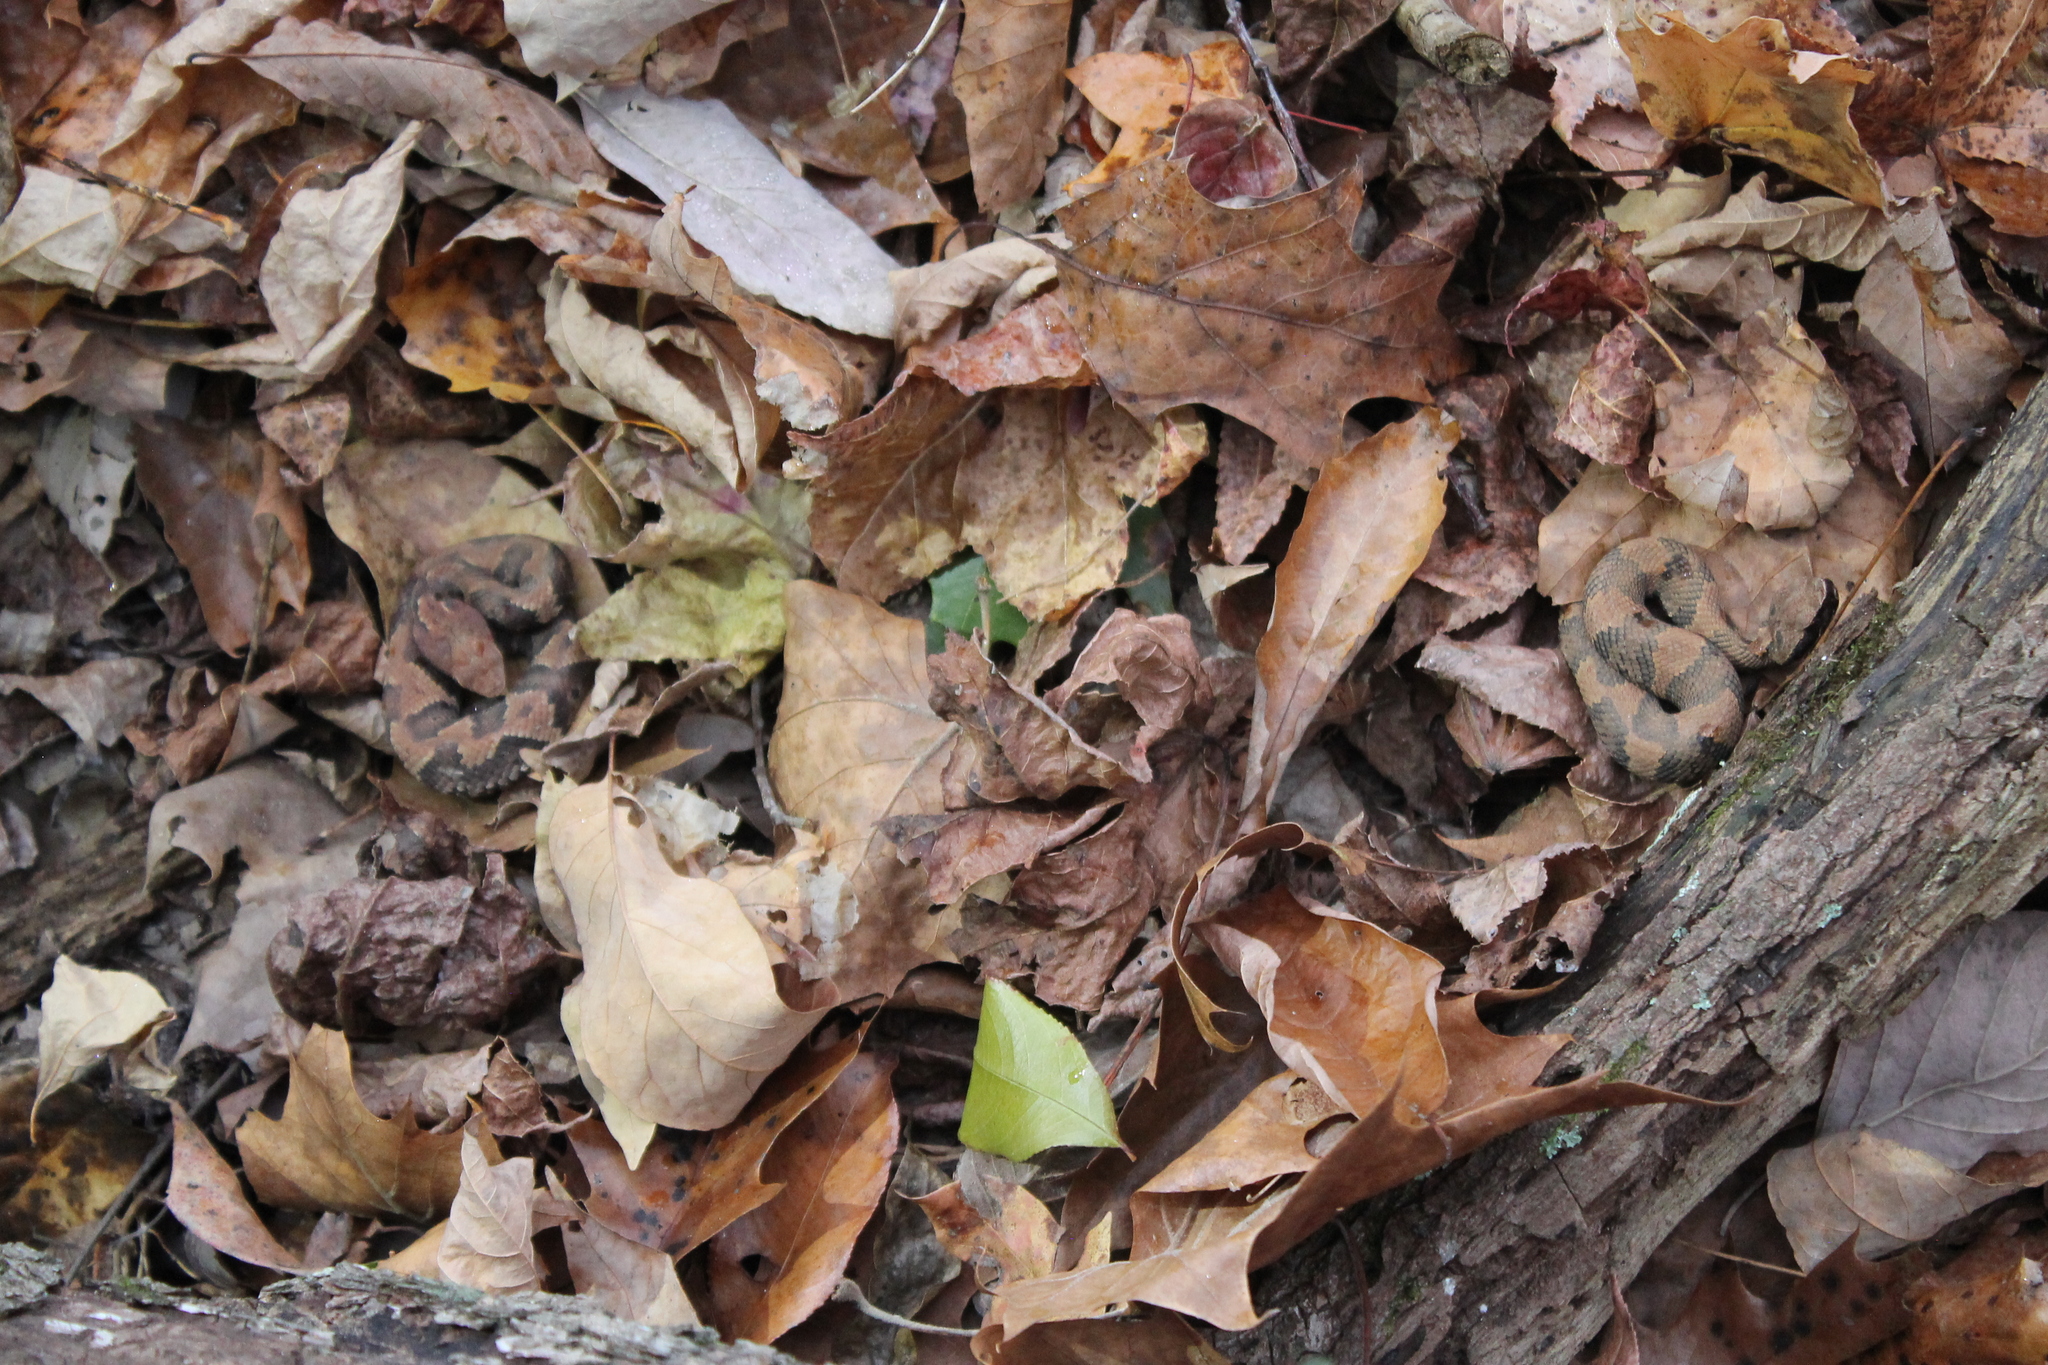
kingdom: Animalia
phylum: Chordata
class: Squamata
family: Viperidae
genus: Agkistrodon
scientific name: Agkistrodon piscivorus
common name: Cottonmouth
